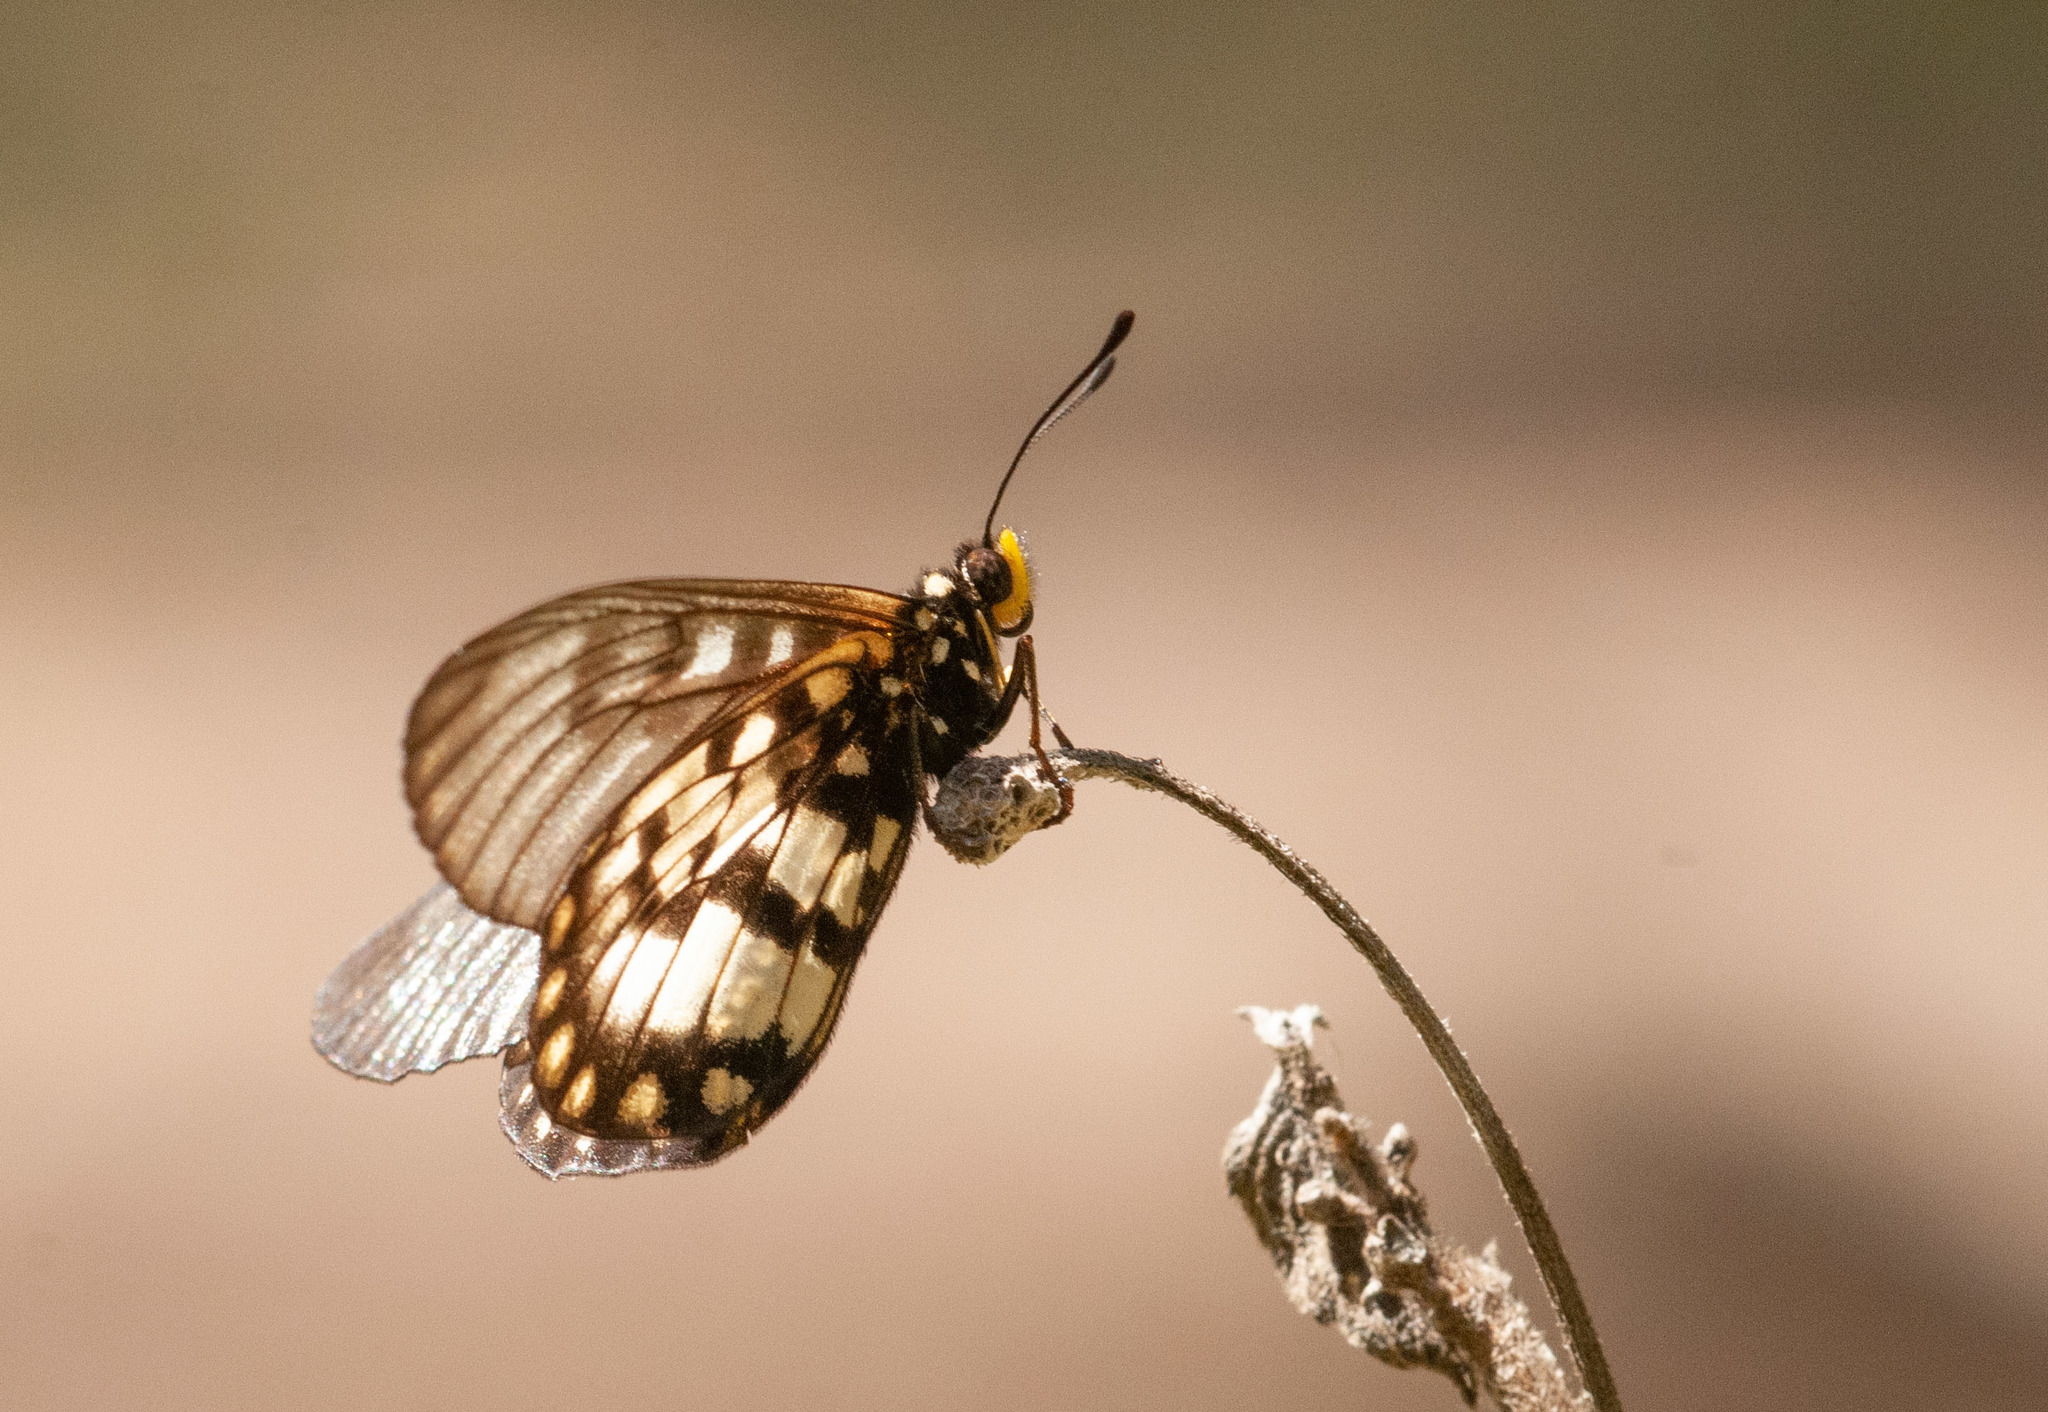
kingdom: Animalia
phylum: Arthropoda
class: Insecta
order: Lepidoptera
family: Nymphalidae
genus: Acraea
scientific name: Acraea andromacha
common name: Glasswing
